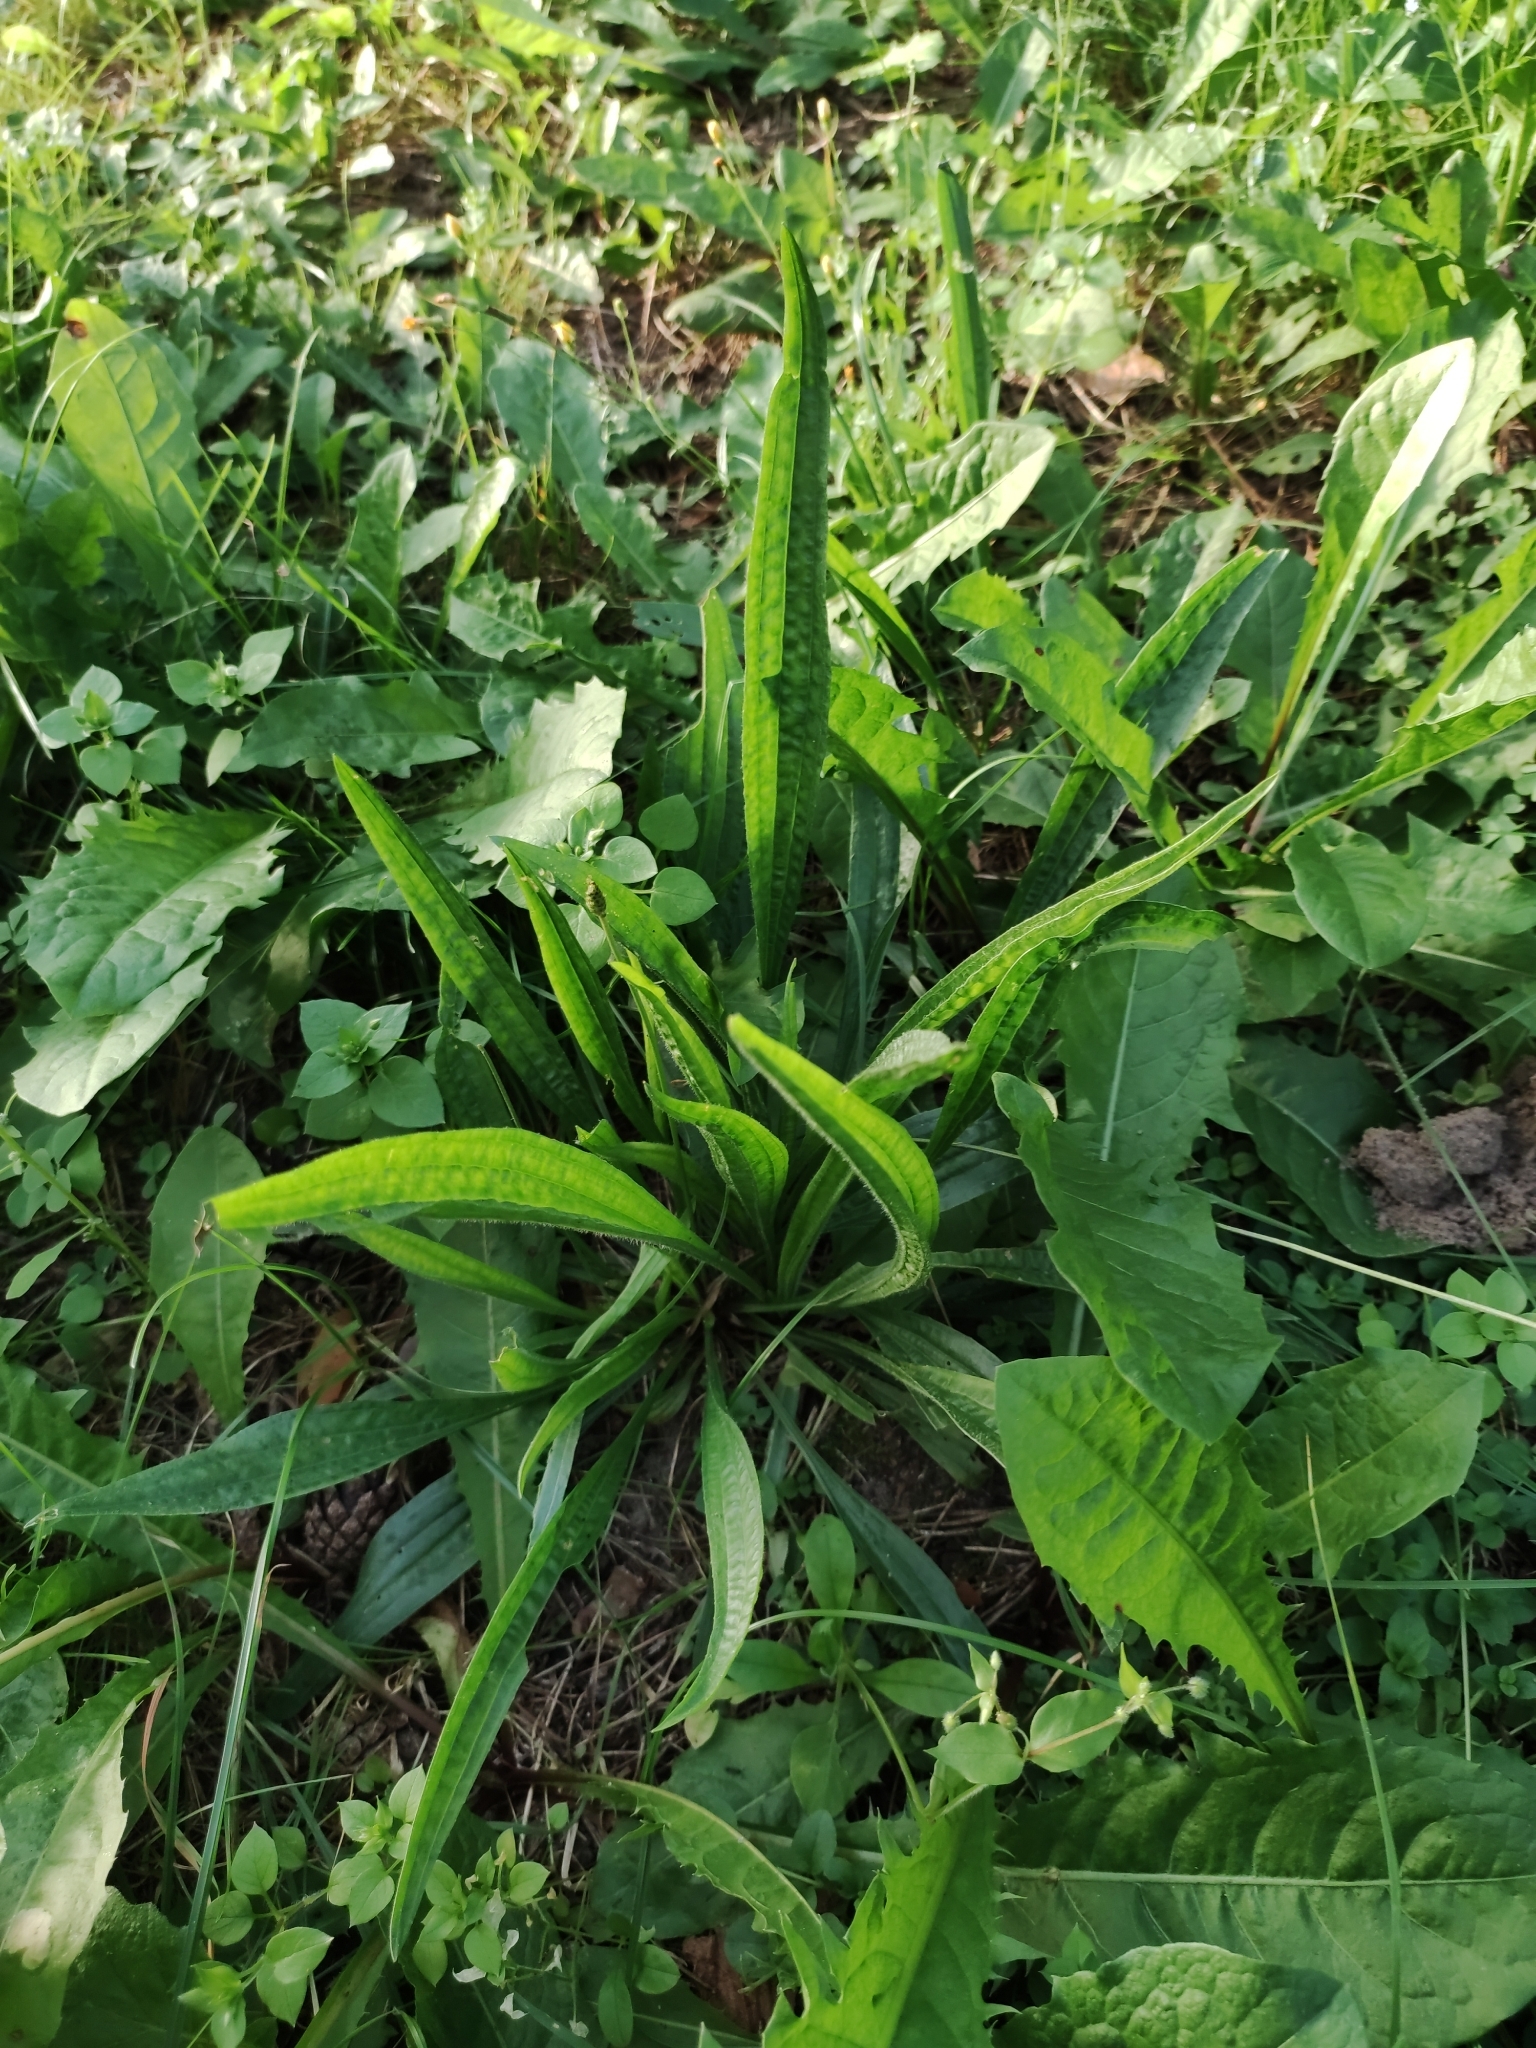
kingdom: Plantae
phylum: Tracheophyta
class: Magnoliopsida
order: Lamiales
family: Plantaginaceae
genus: Plantago
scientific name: Plantago lanceolata
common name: Ribwort plantain
